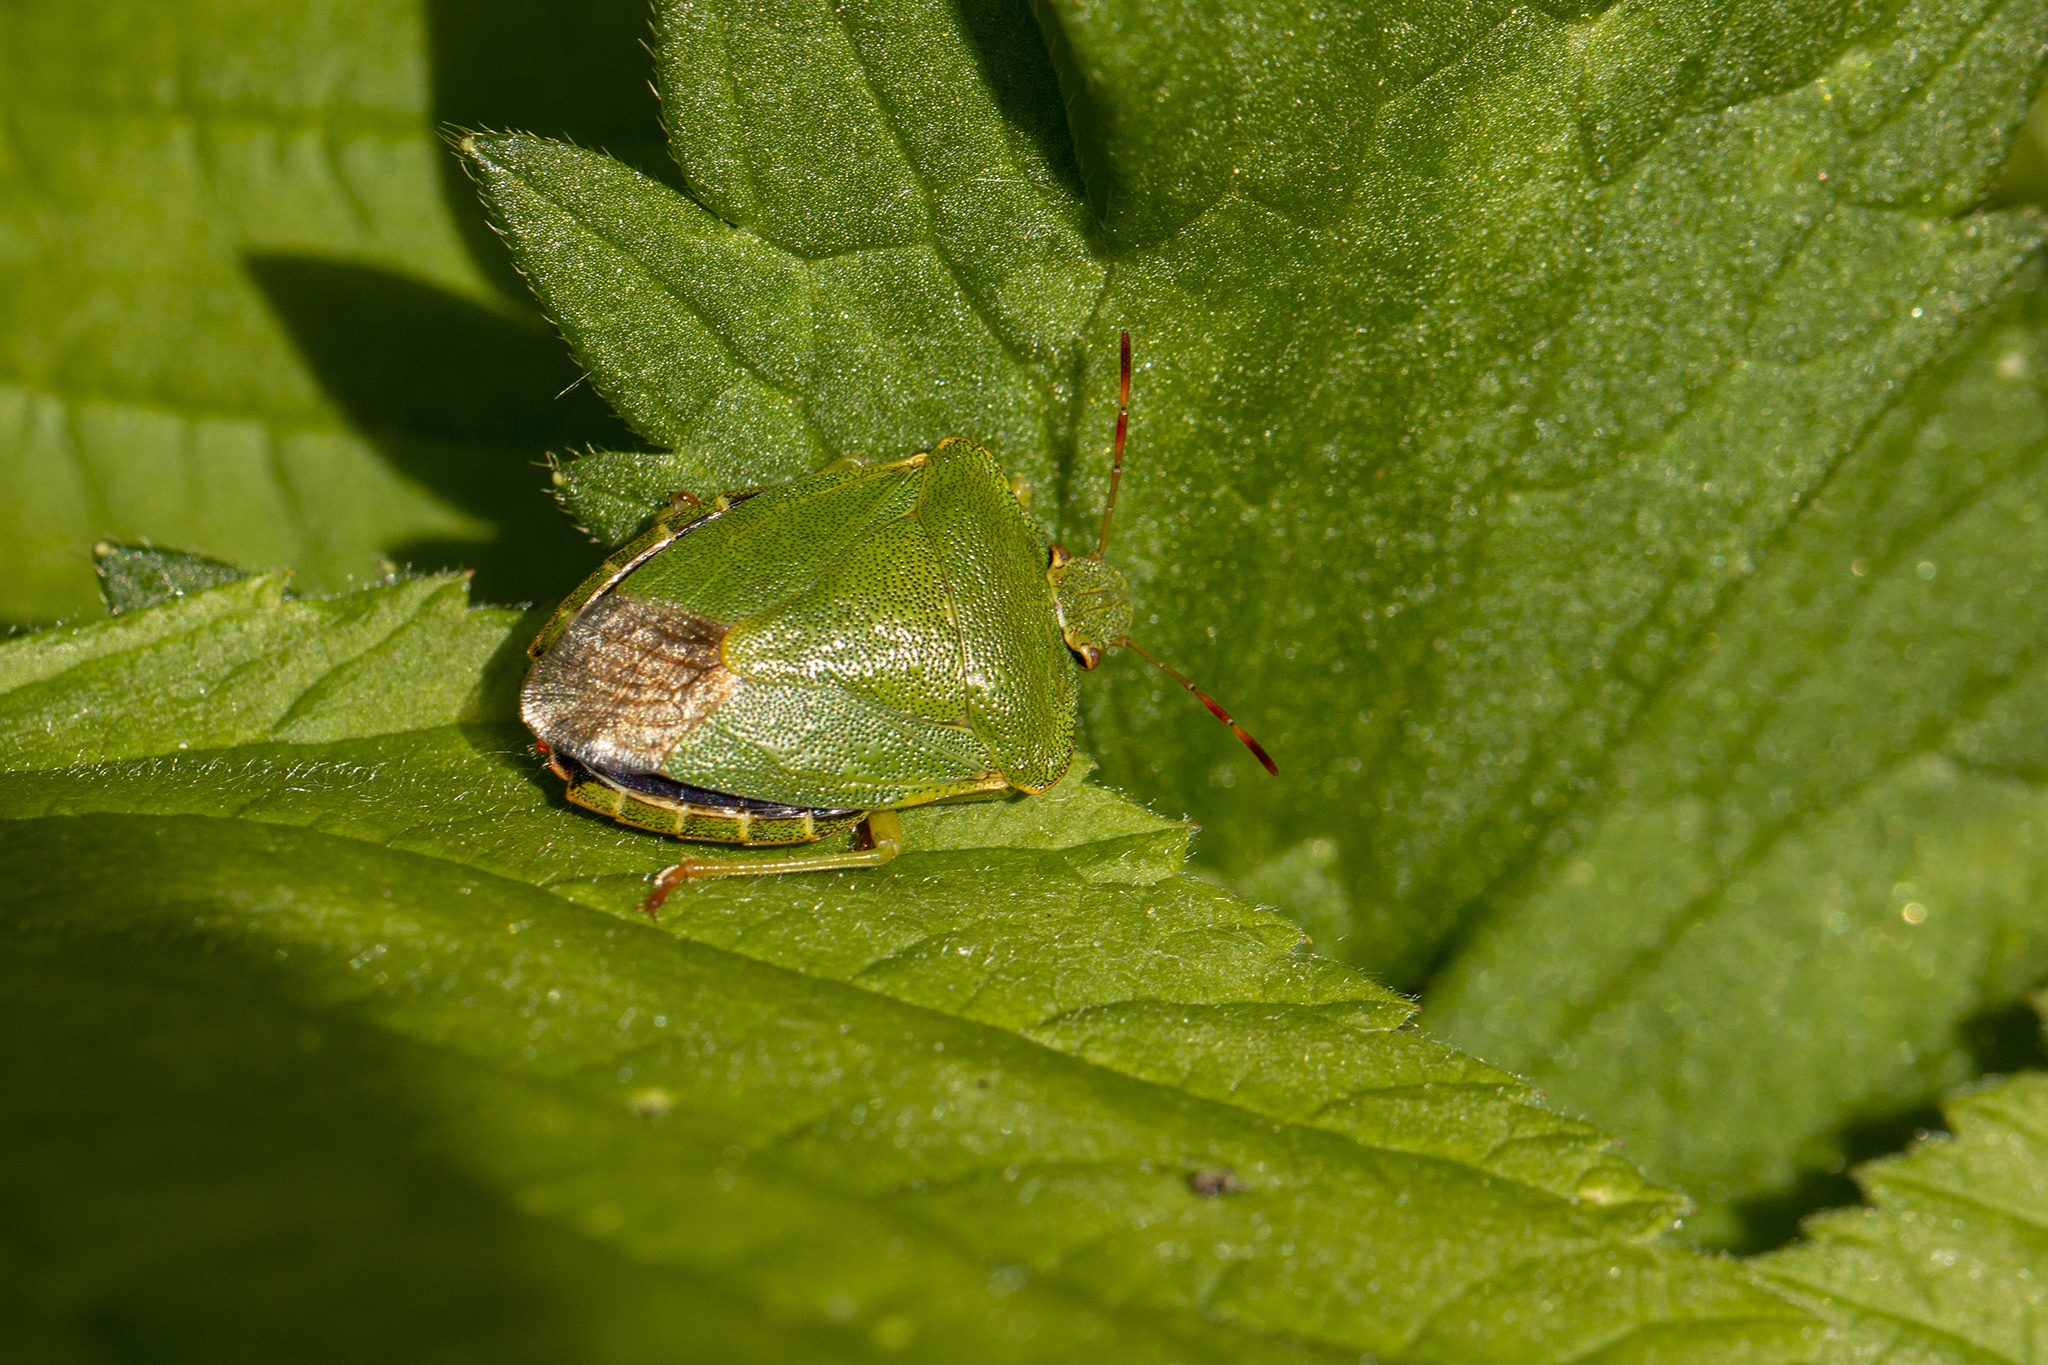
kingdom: Animalia
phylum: Arthropoda
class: Insecta
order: Hemiptera
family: Pentatomidae
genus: Palomena
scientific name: Palomena prasina
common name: Green shieldbug
